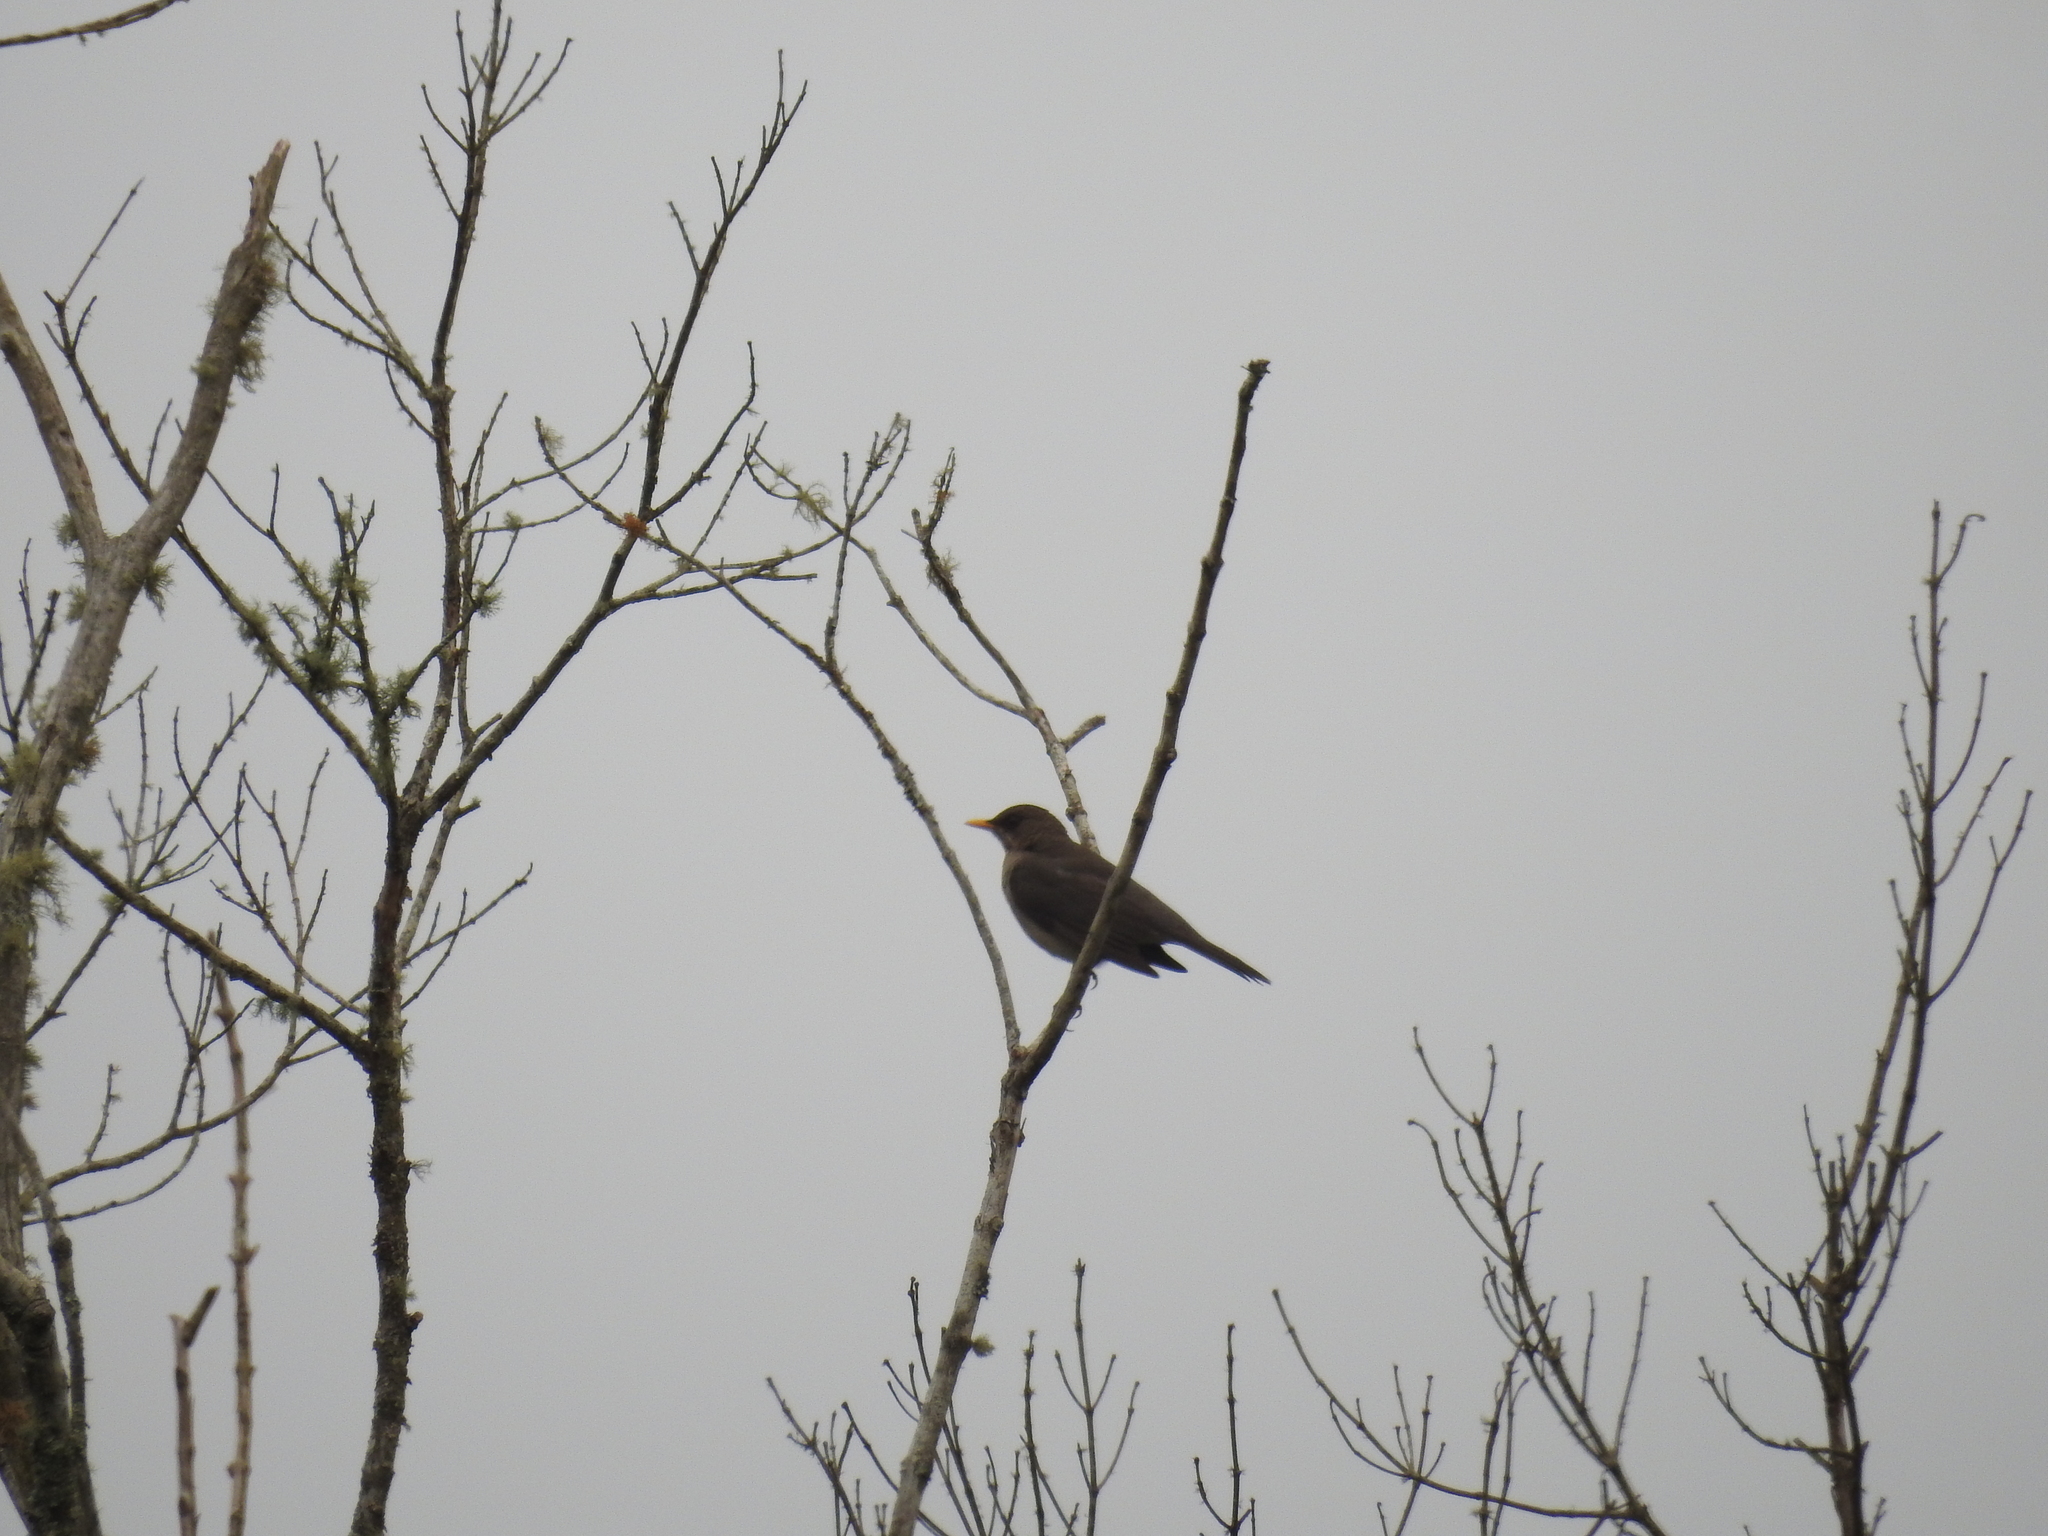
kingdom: Animalia
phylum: Chordata
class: Aves
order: Passeriformes
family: Turdidae
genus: Turdus
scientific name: Turdus amaurochalinus
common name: Creamy-bellied thrush
